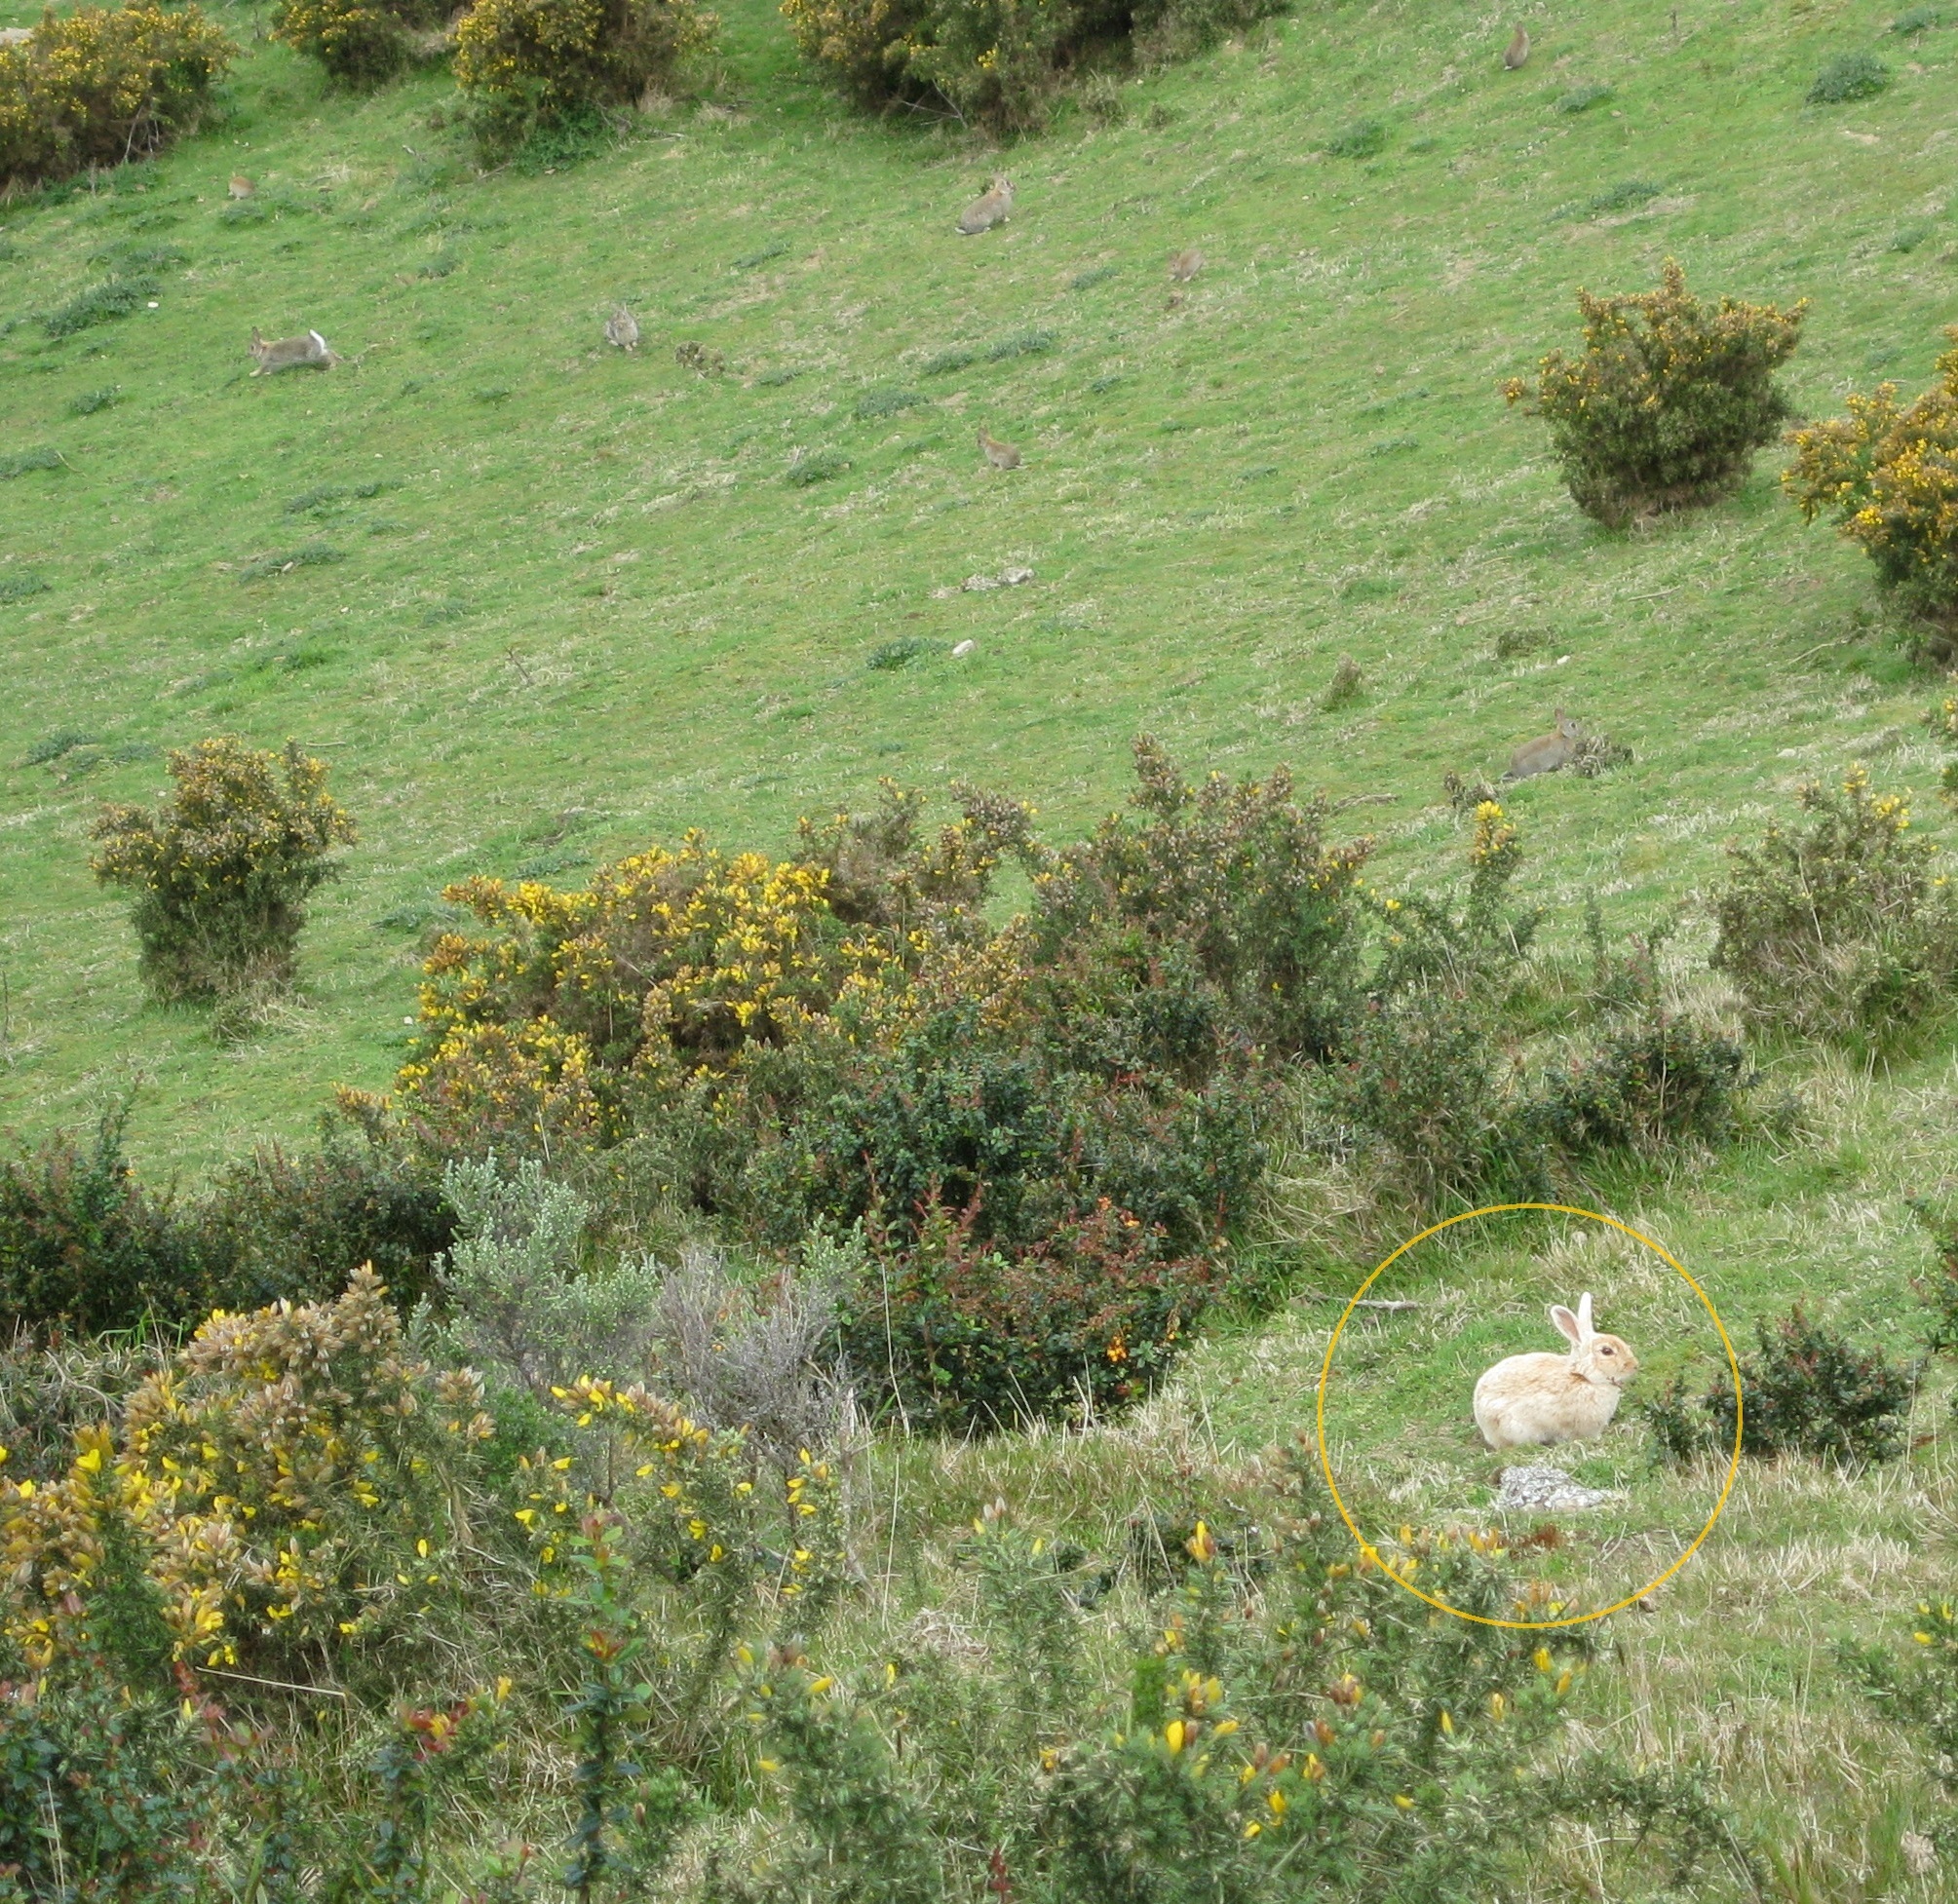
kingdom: Animalia
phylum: Chordata
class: Mammalia
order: Lagomorpha
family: Leporidae
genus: Oryctolagus
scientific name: Oryctolagus cuniculus
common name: European rabbit
